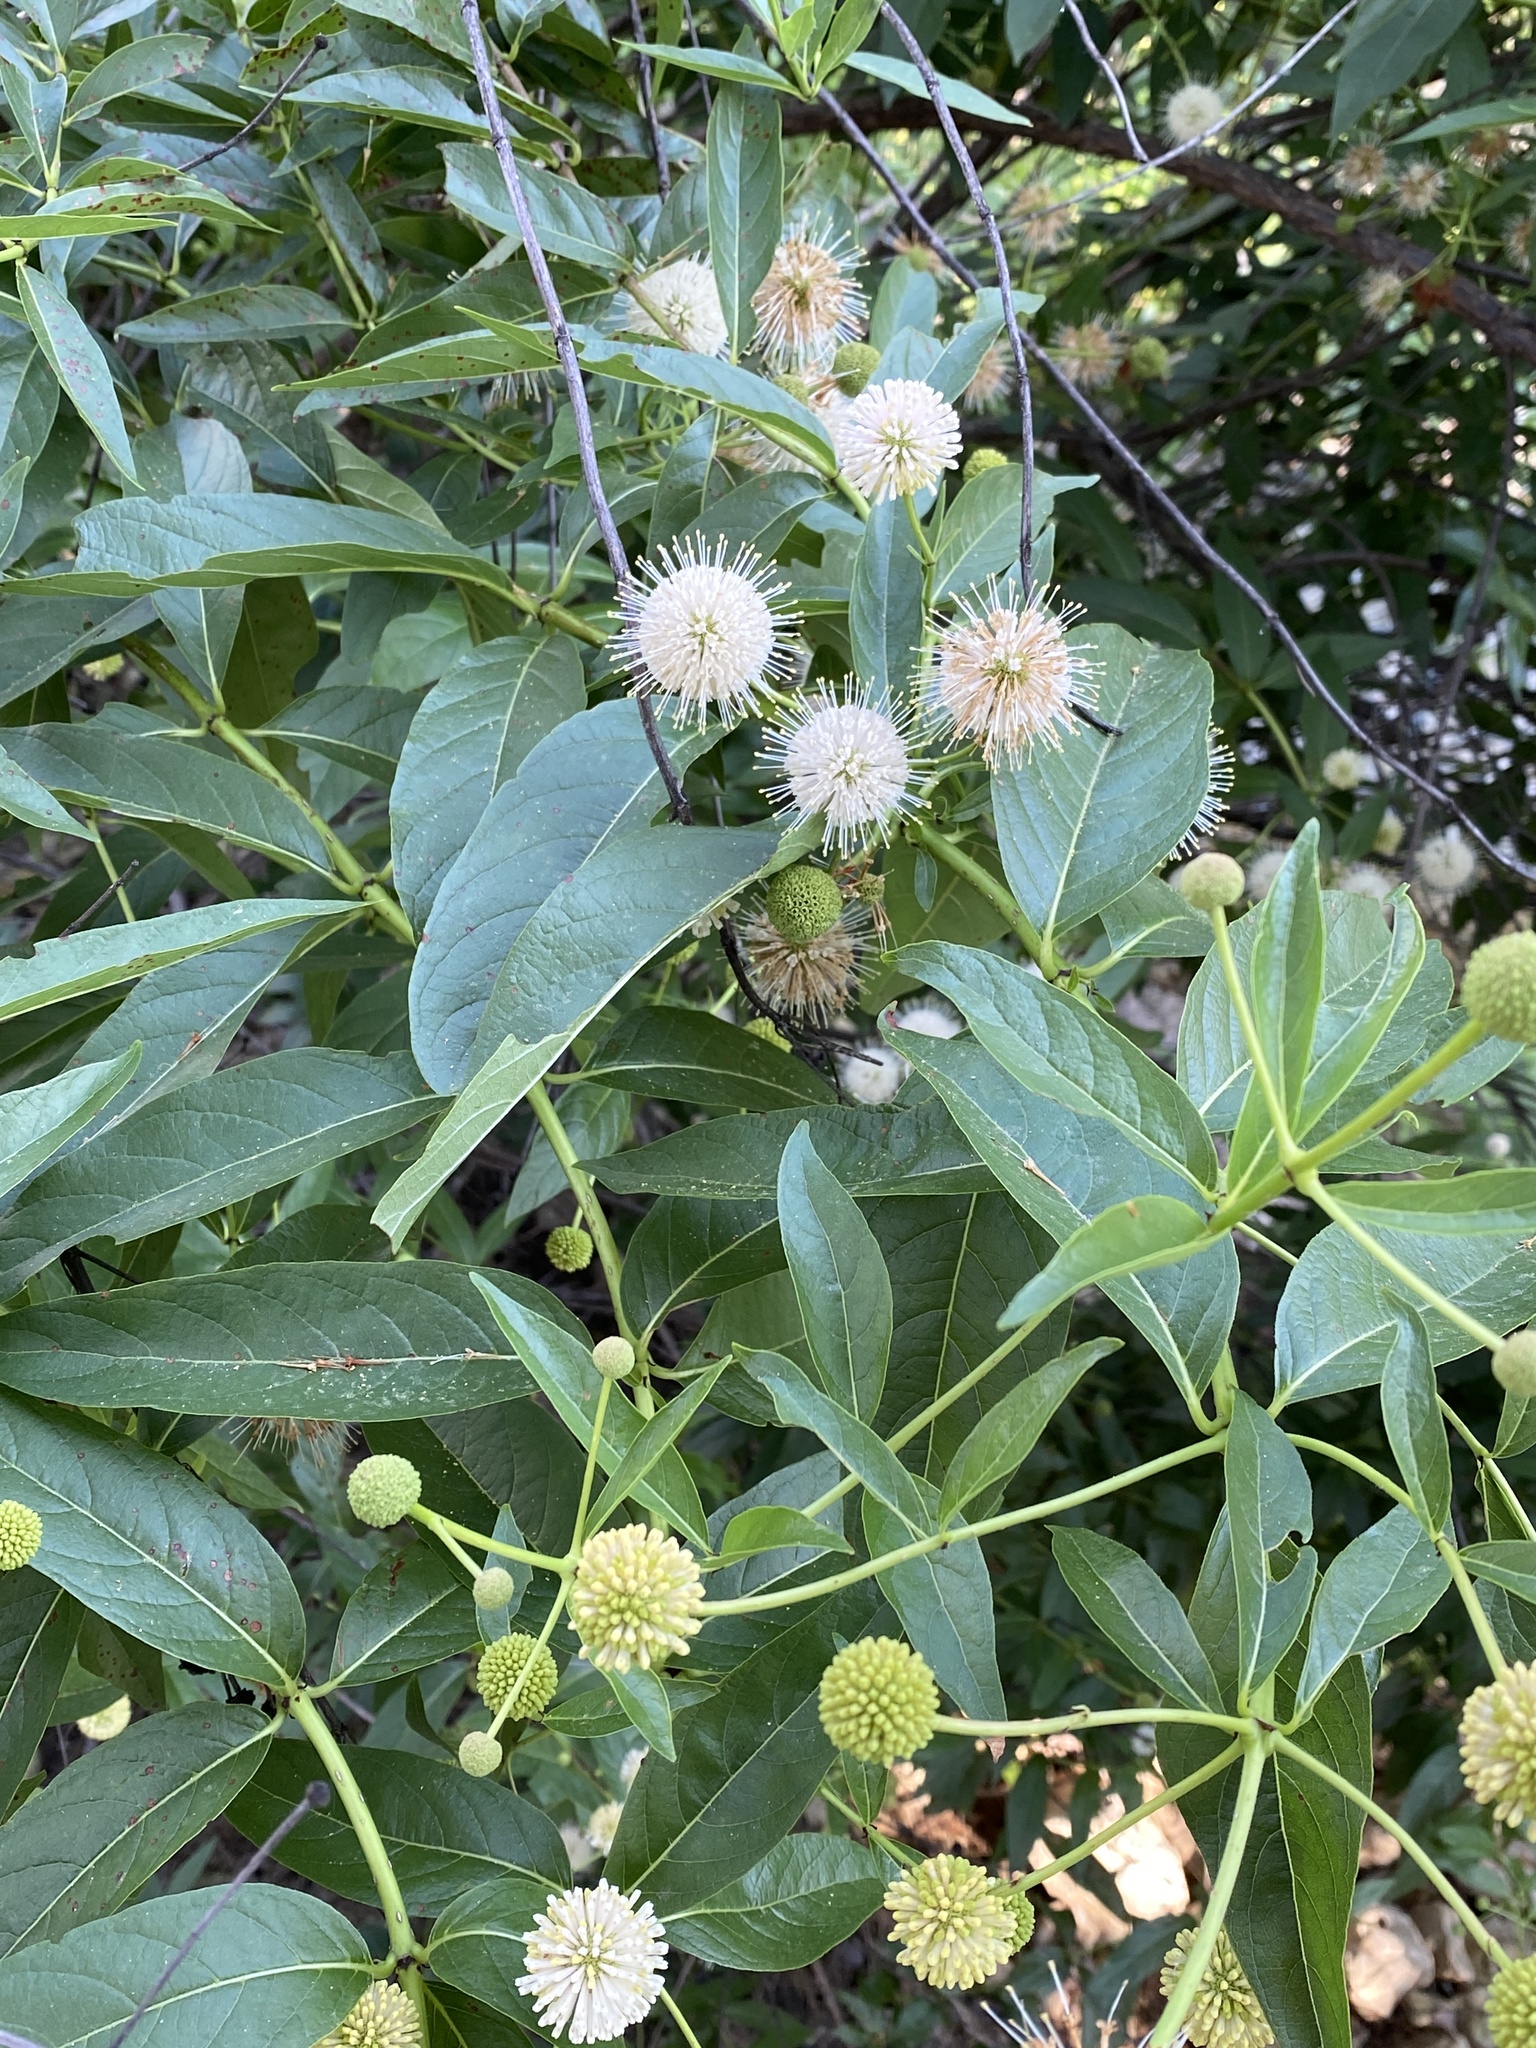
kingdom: Plantae
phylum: Tracheophyta
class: Magnoliopsida
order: Gentianales
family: Rubiaceae
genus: Cephalanthus
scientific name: Cephalanthus occidentalis
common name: Button-willow
